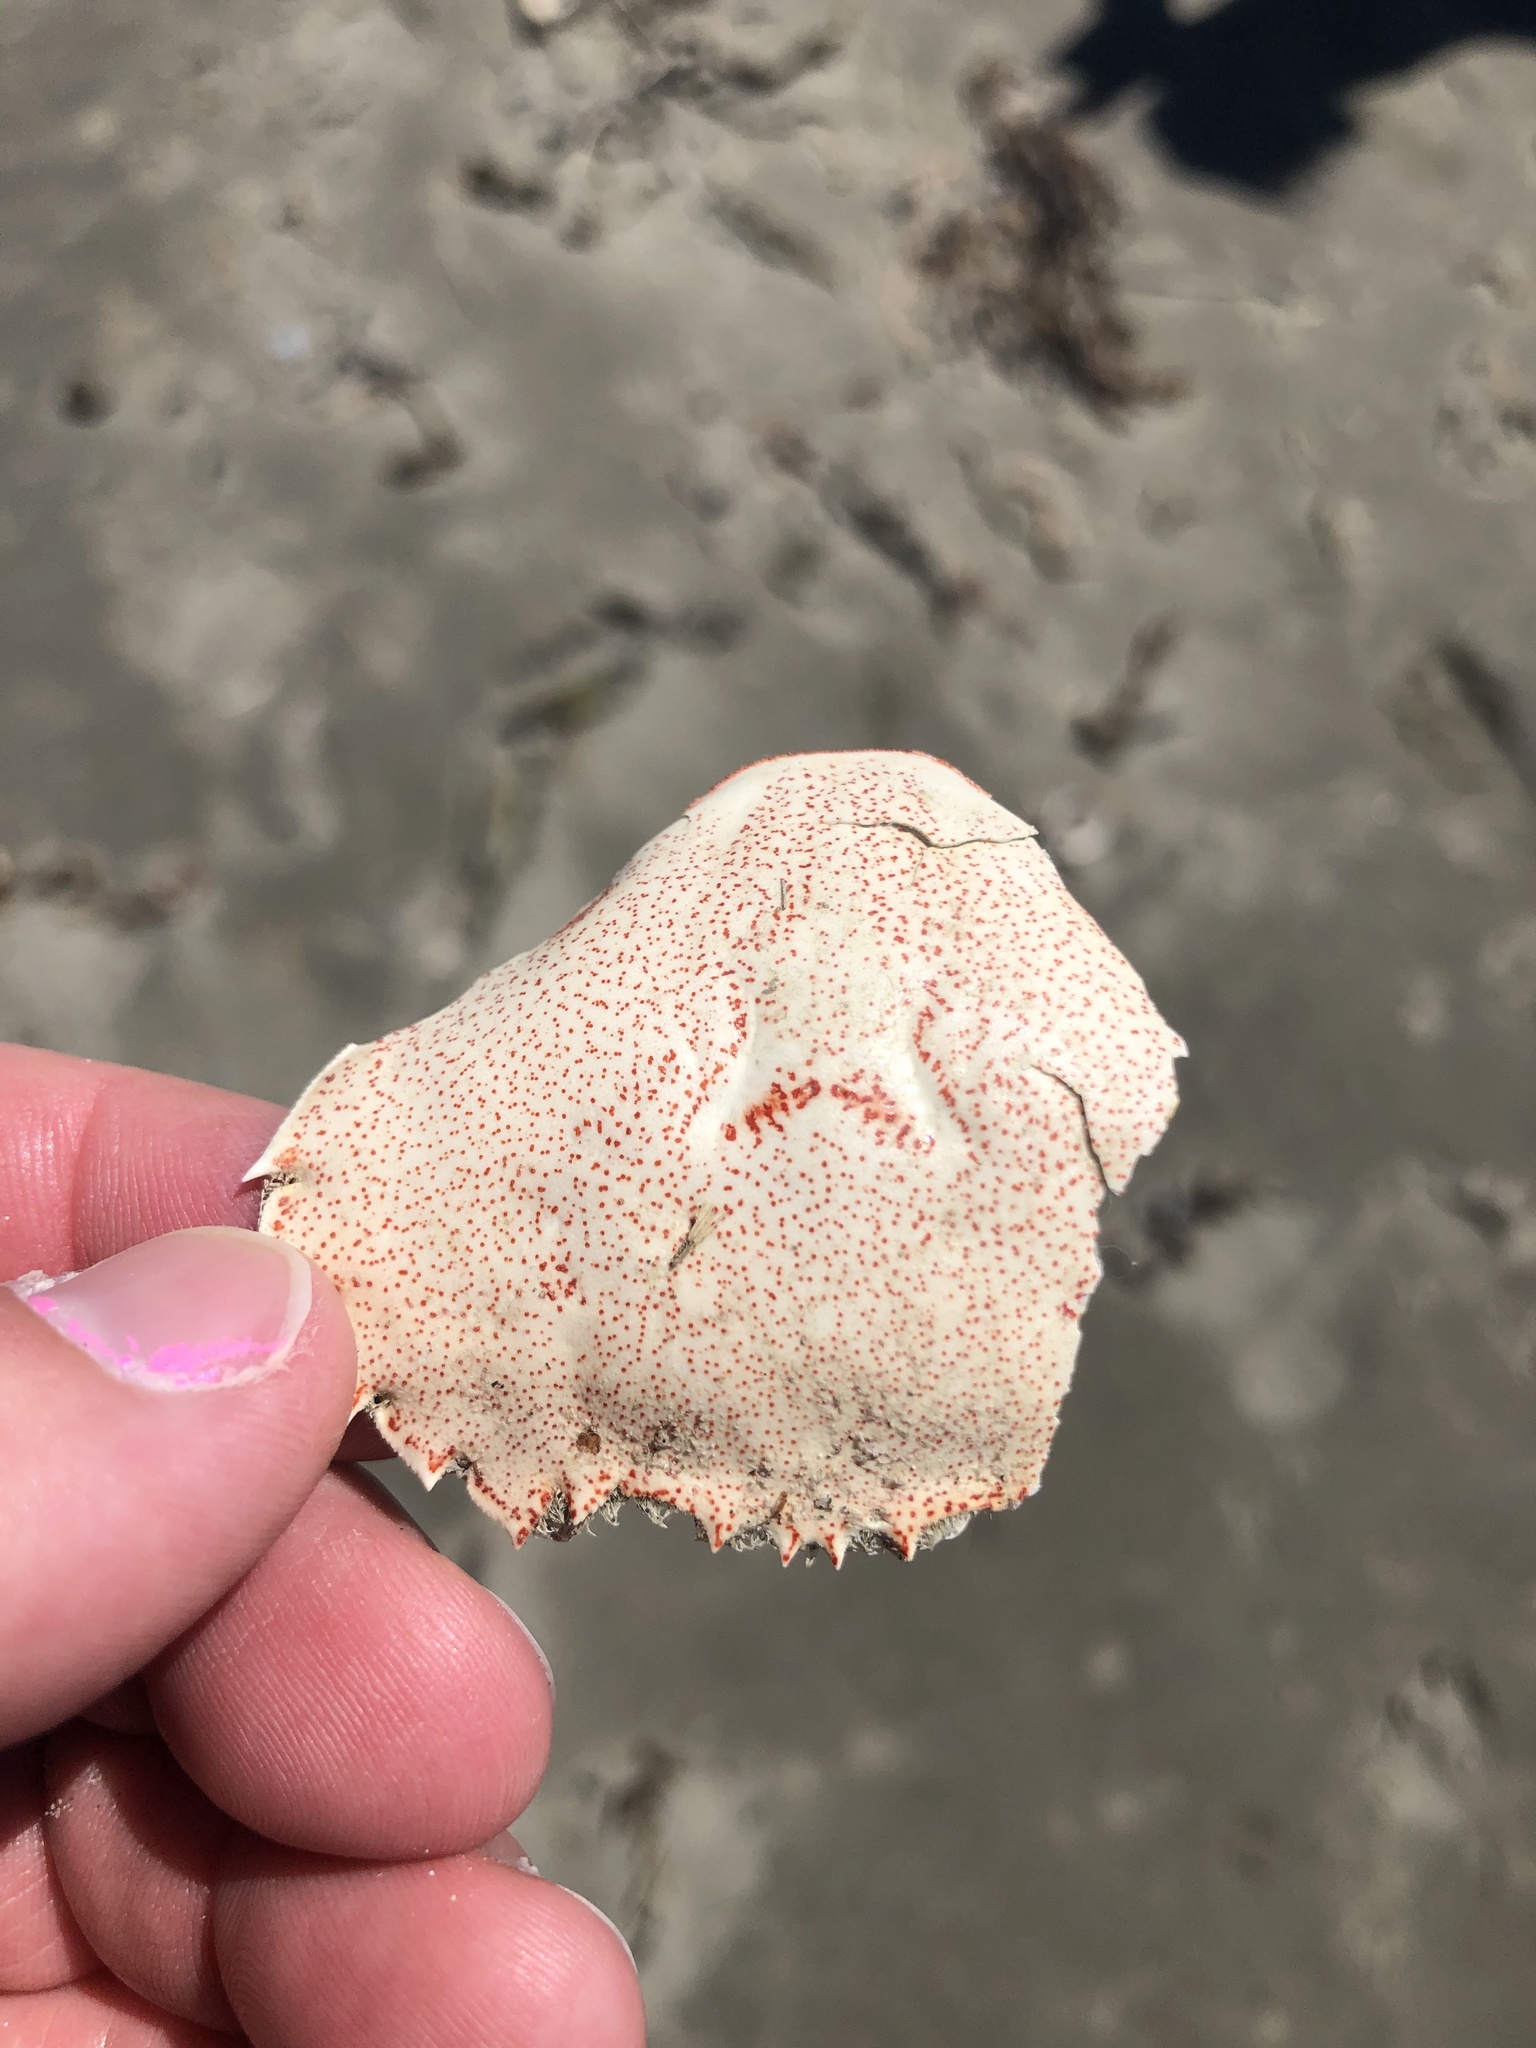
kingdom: Animalia
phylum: Arthropoda
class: Malacostraca
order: Decapoda
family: Ovalipidae
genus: Ovalipes
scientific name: Ovalipes catharus
